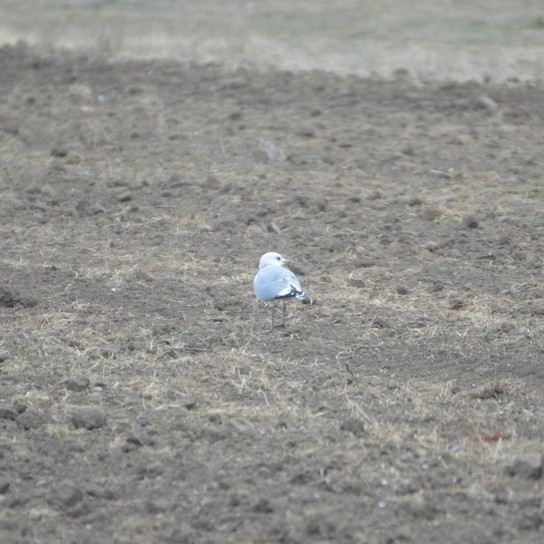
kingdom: Animalia
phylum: Chordata
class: Aves
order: Charadriiformes
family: Laridae
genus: Larus
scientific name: Larus canus
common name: Mew gull
